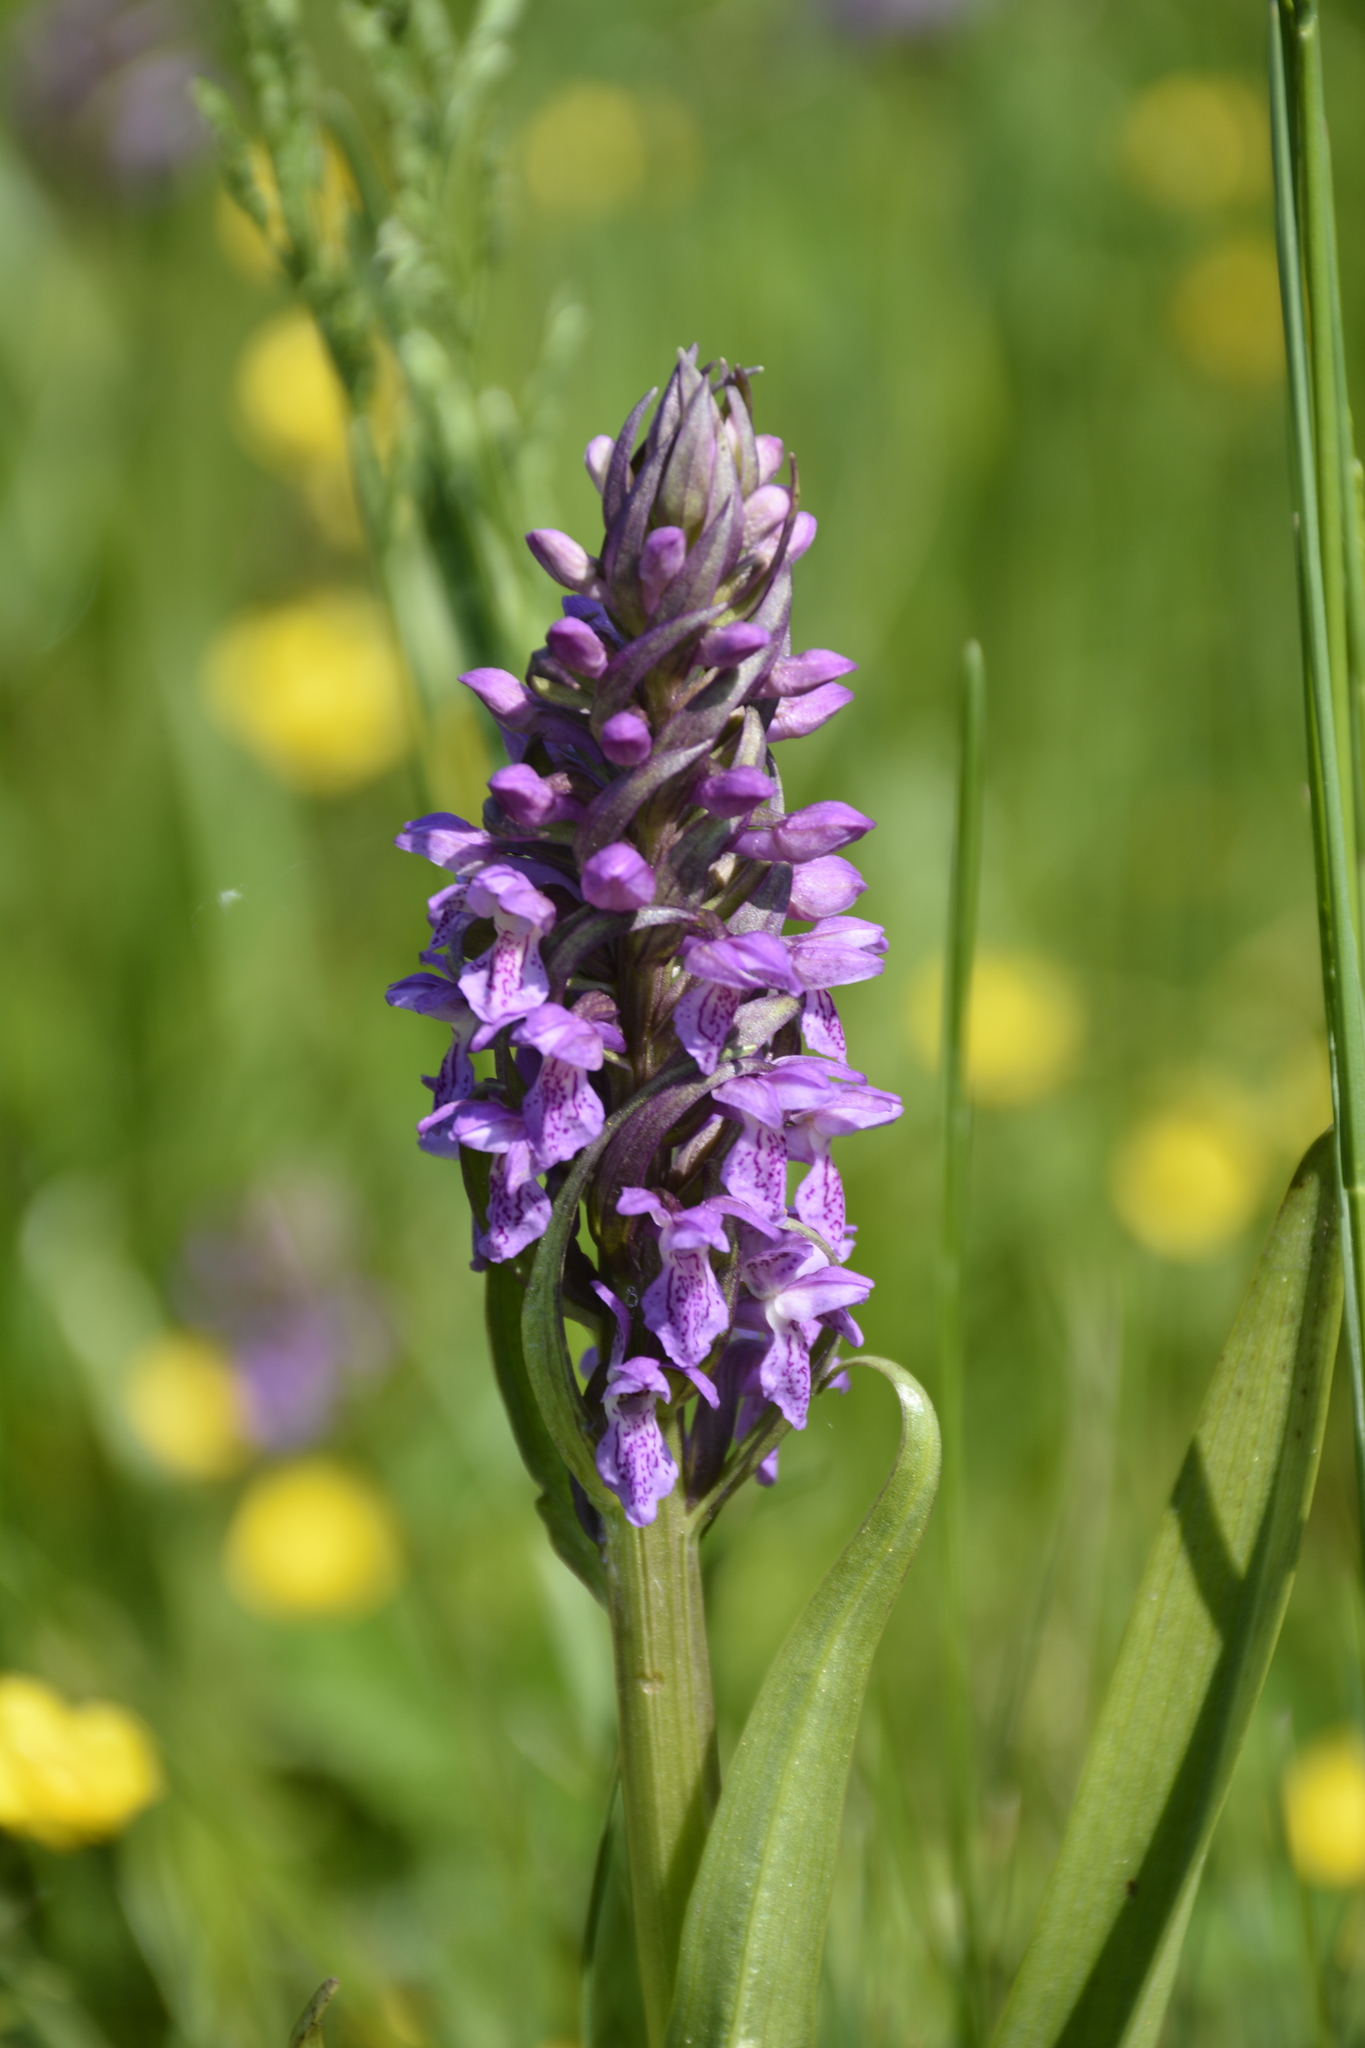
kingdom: Plantae
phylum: Tracheophyta
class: Liliopsida
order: Asparagales
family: Orchidaceae
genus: Dactylorhiza
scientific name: Dactylorhiza incarnata
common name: Early marsh-orchid
